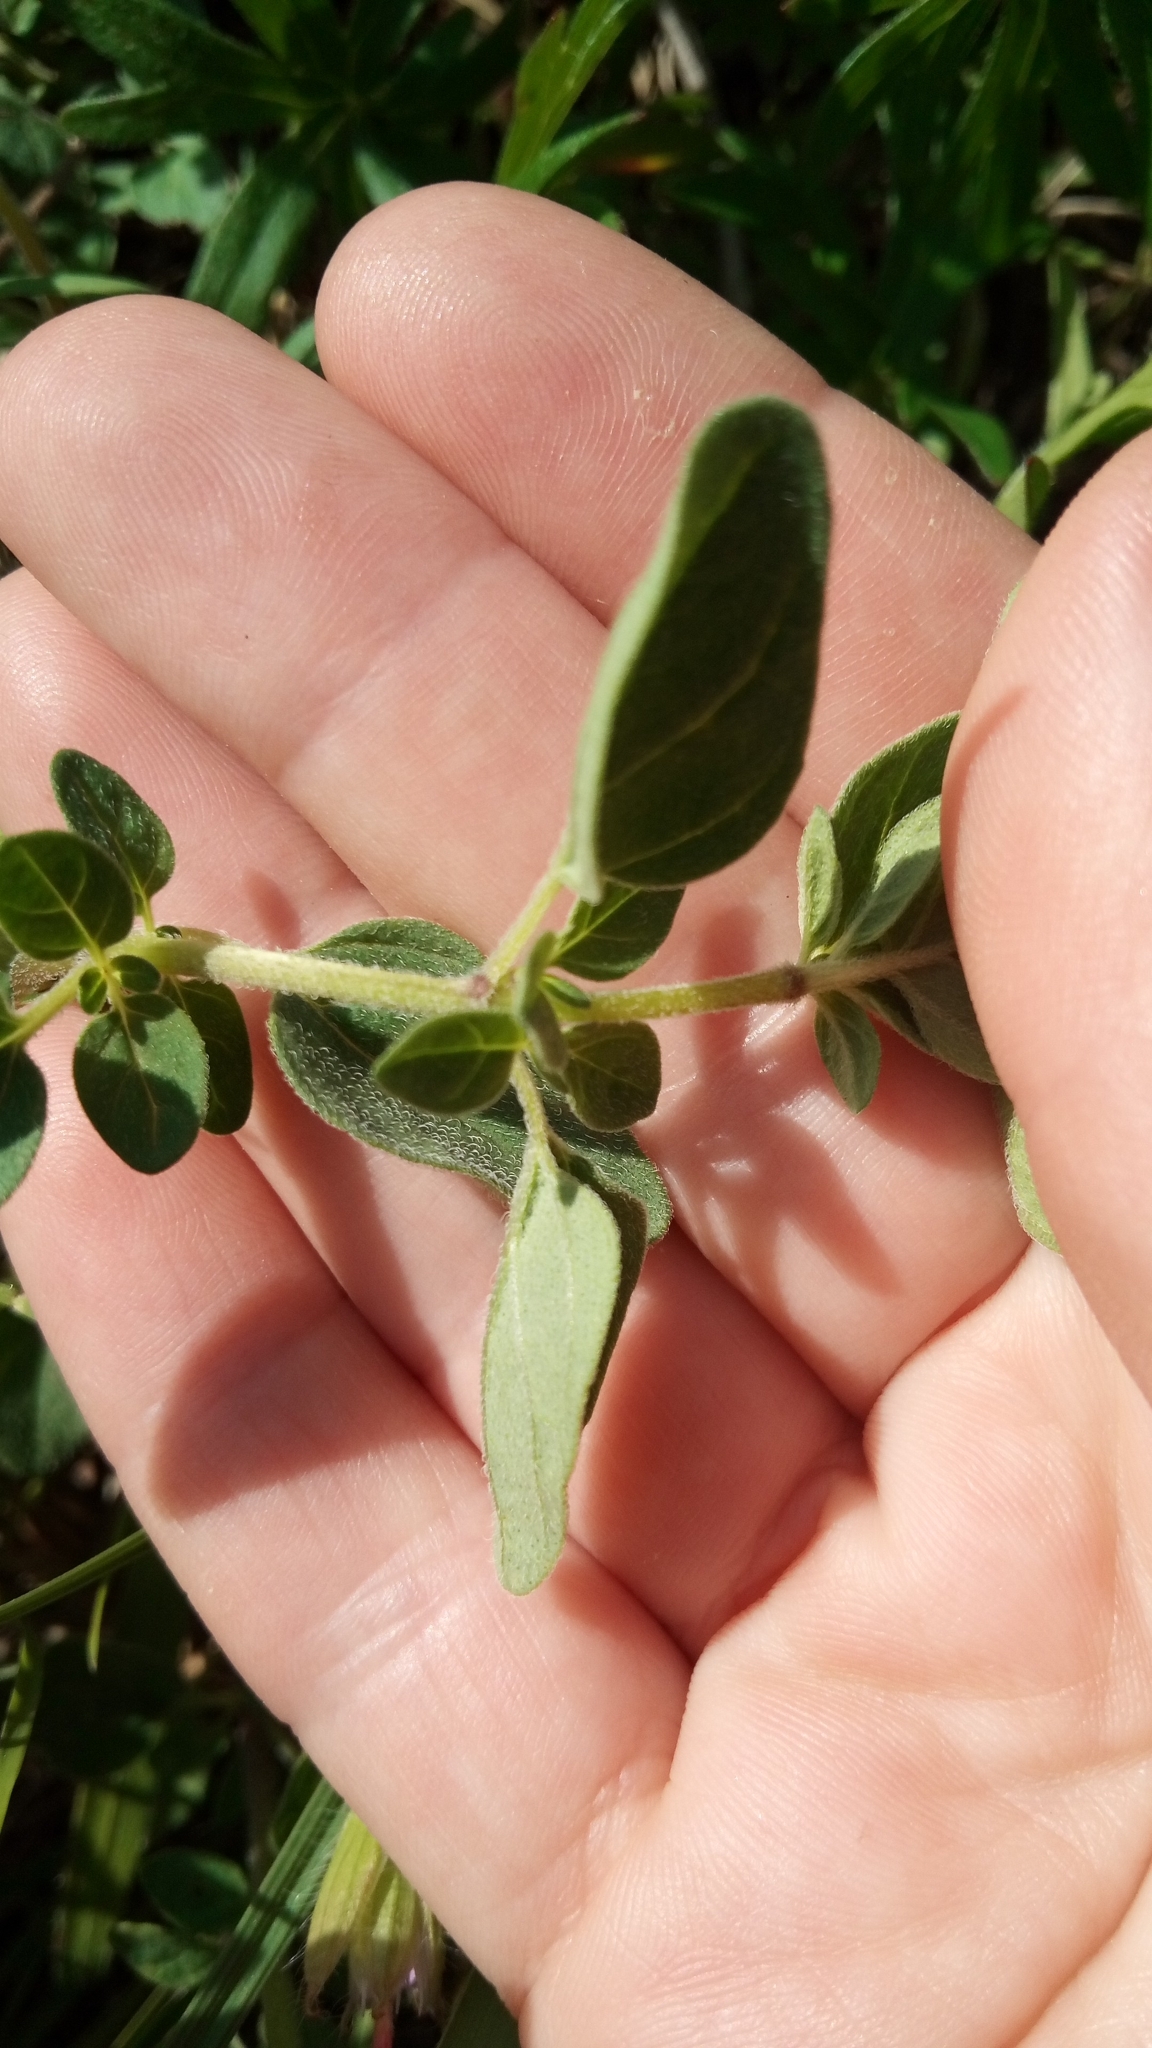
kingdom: Plantae
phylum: Tracheophyta
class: Magnoliopsida
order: Lamiales
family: Lamiaceae
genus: Origanum
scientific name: Origanum vulgare
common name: Wild marjoram
